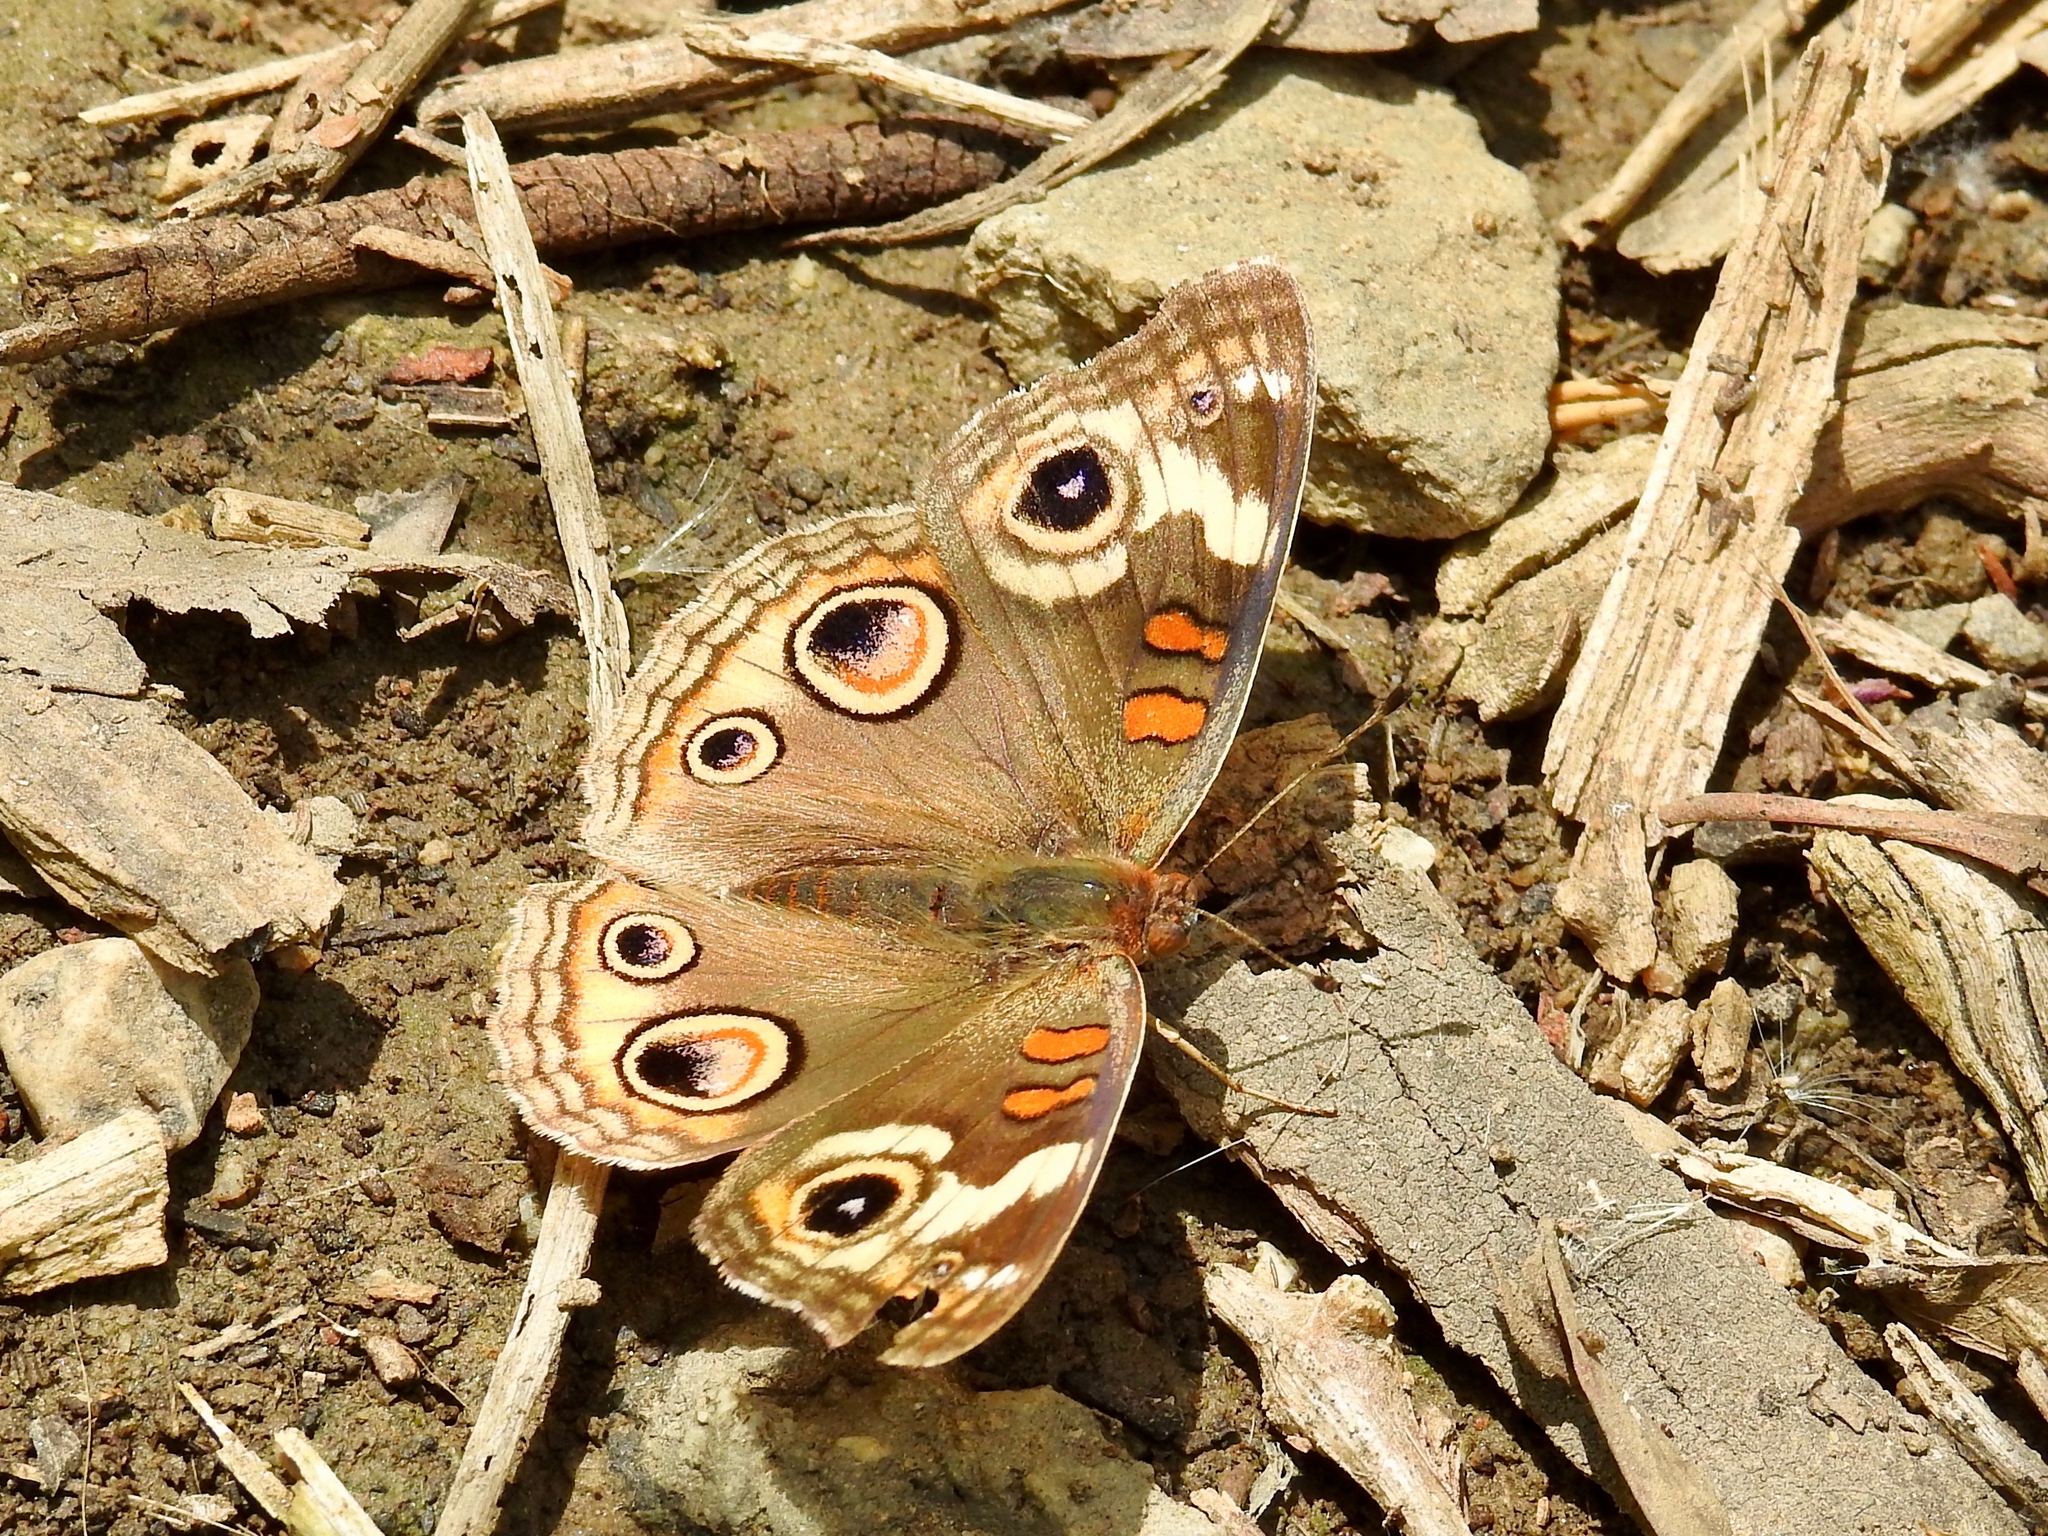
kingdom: Animalia
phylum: Arthropoda
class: Insecta
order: Lepidoptera
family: Nymphalidae
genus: Junonia
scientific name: Junonia grisea
